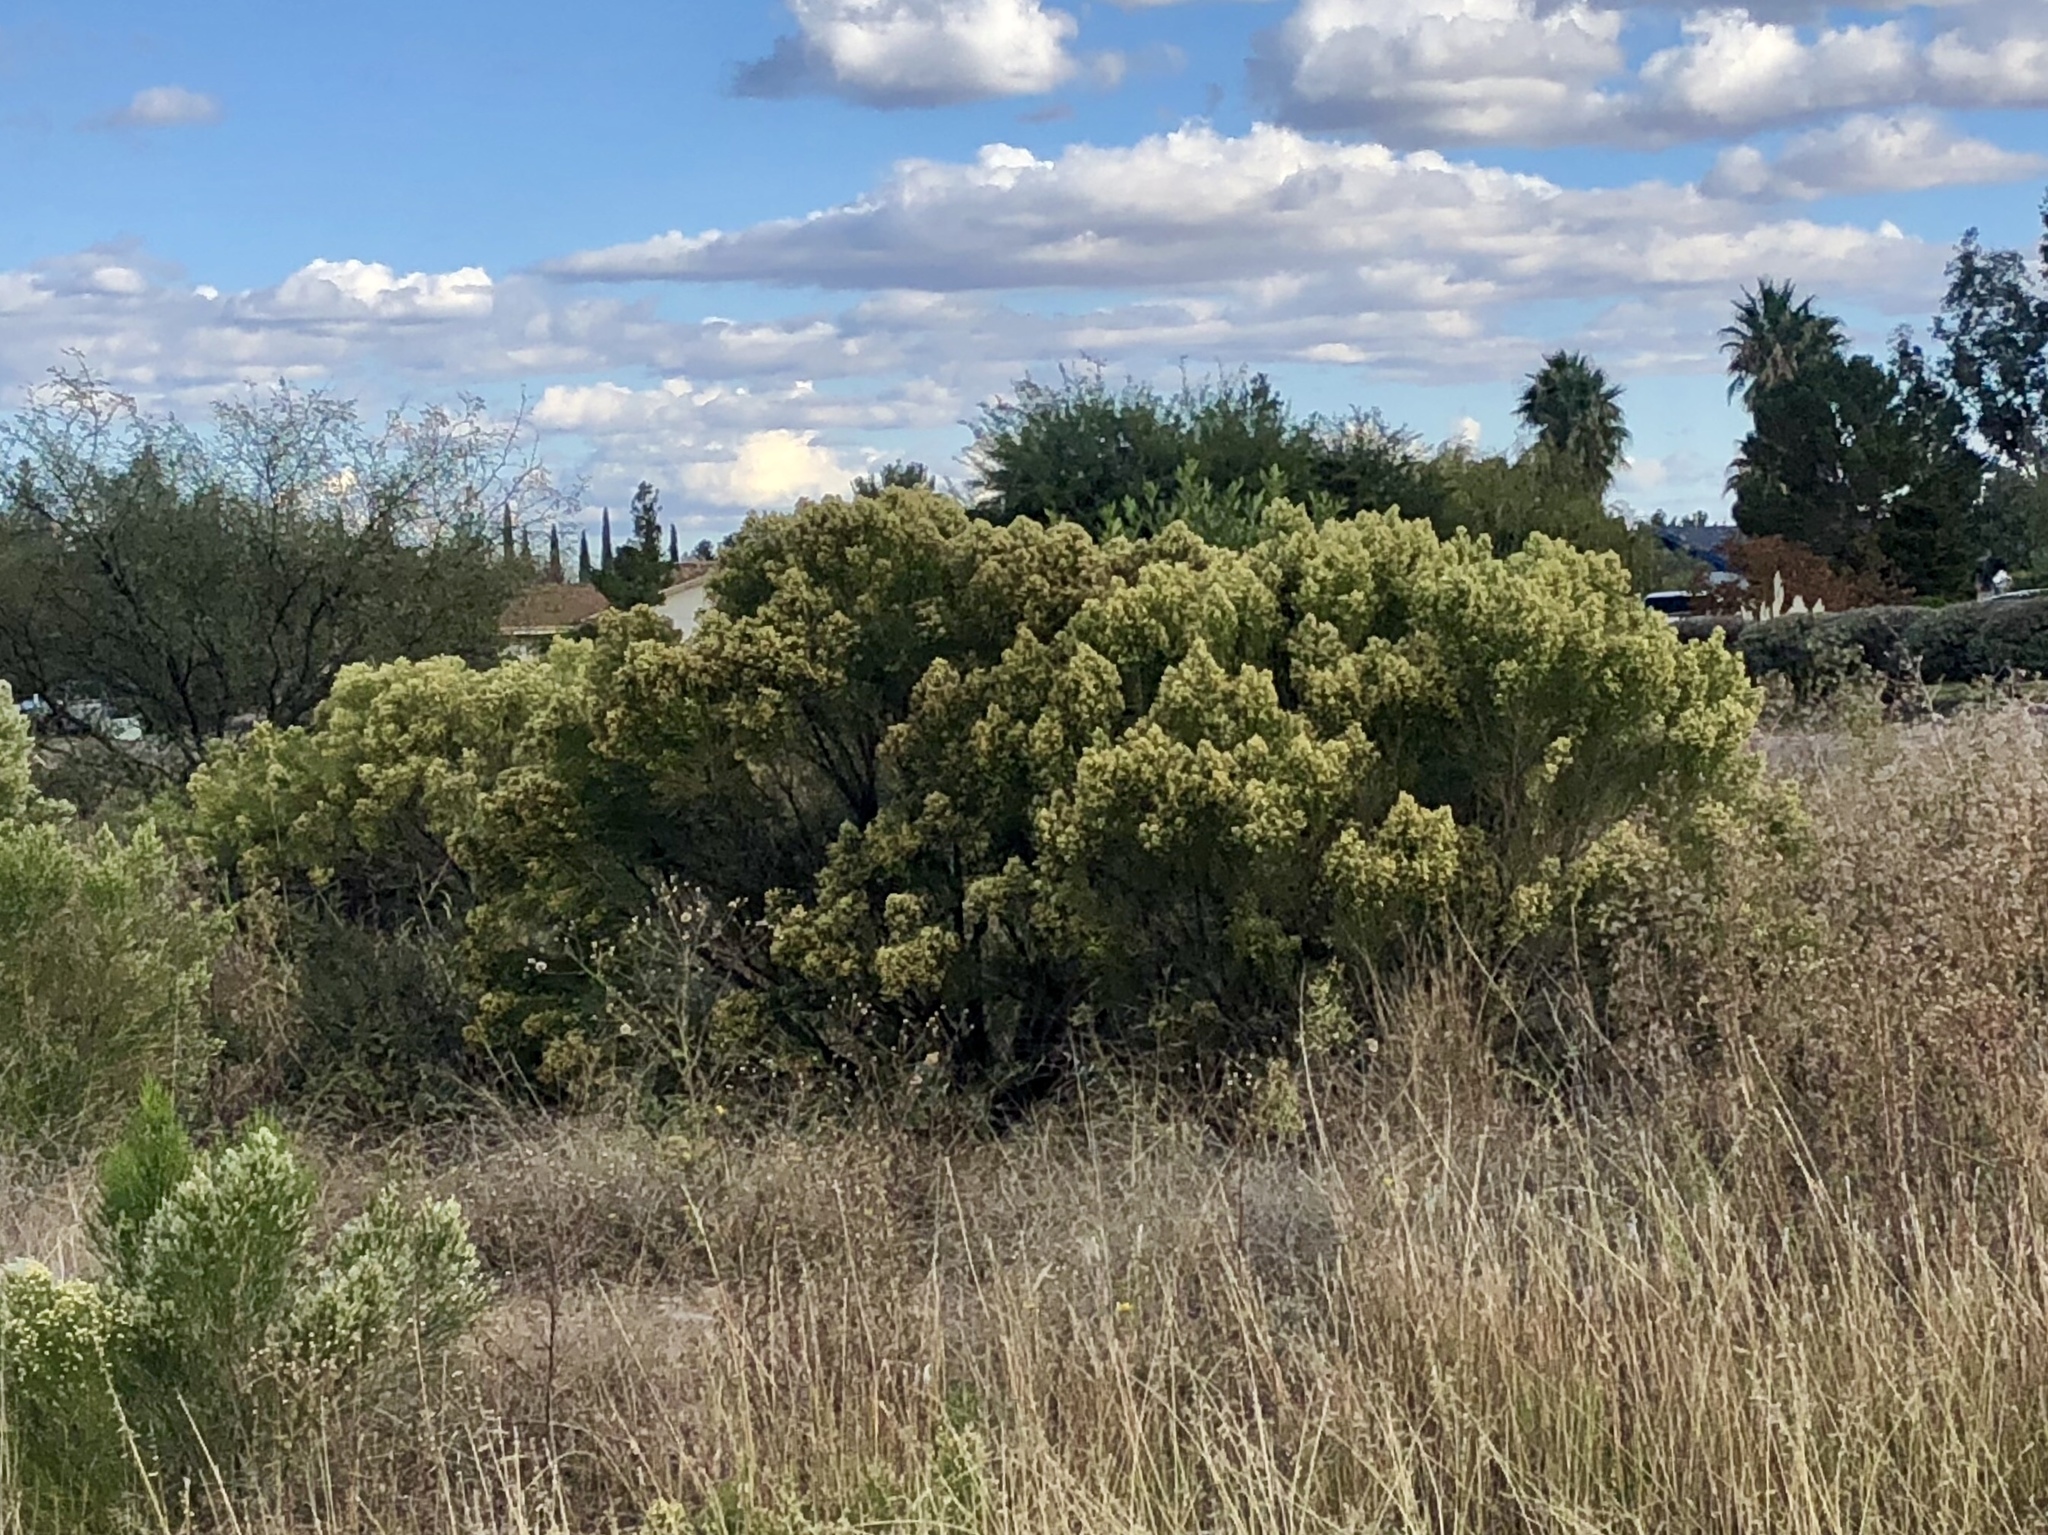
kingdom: Plantae
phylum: Tracheophyta
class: Magnoliopsida
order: Asterales
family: Asteraceae
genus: Baccharis
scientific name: Baccharis sarothroides
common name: Desert-broom
